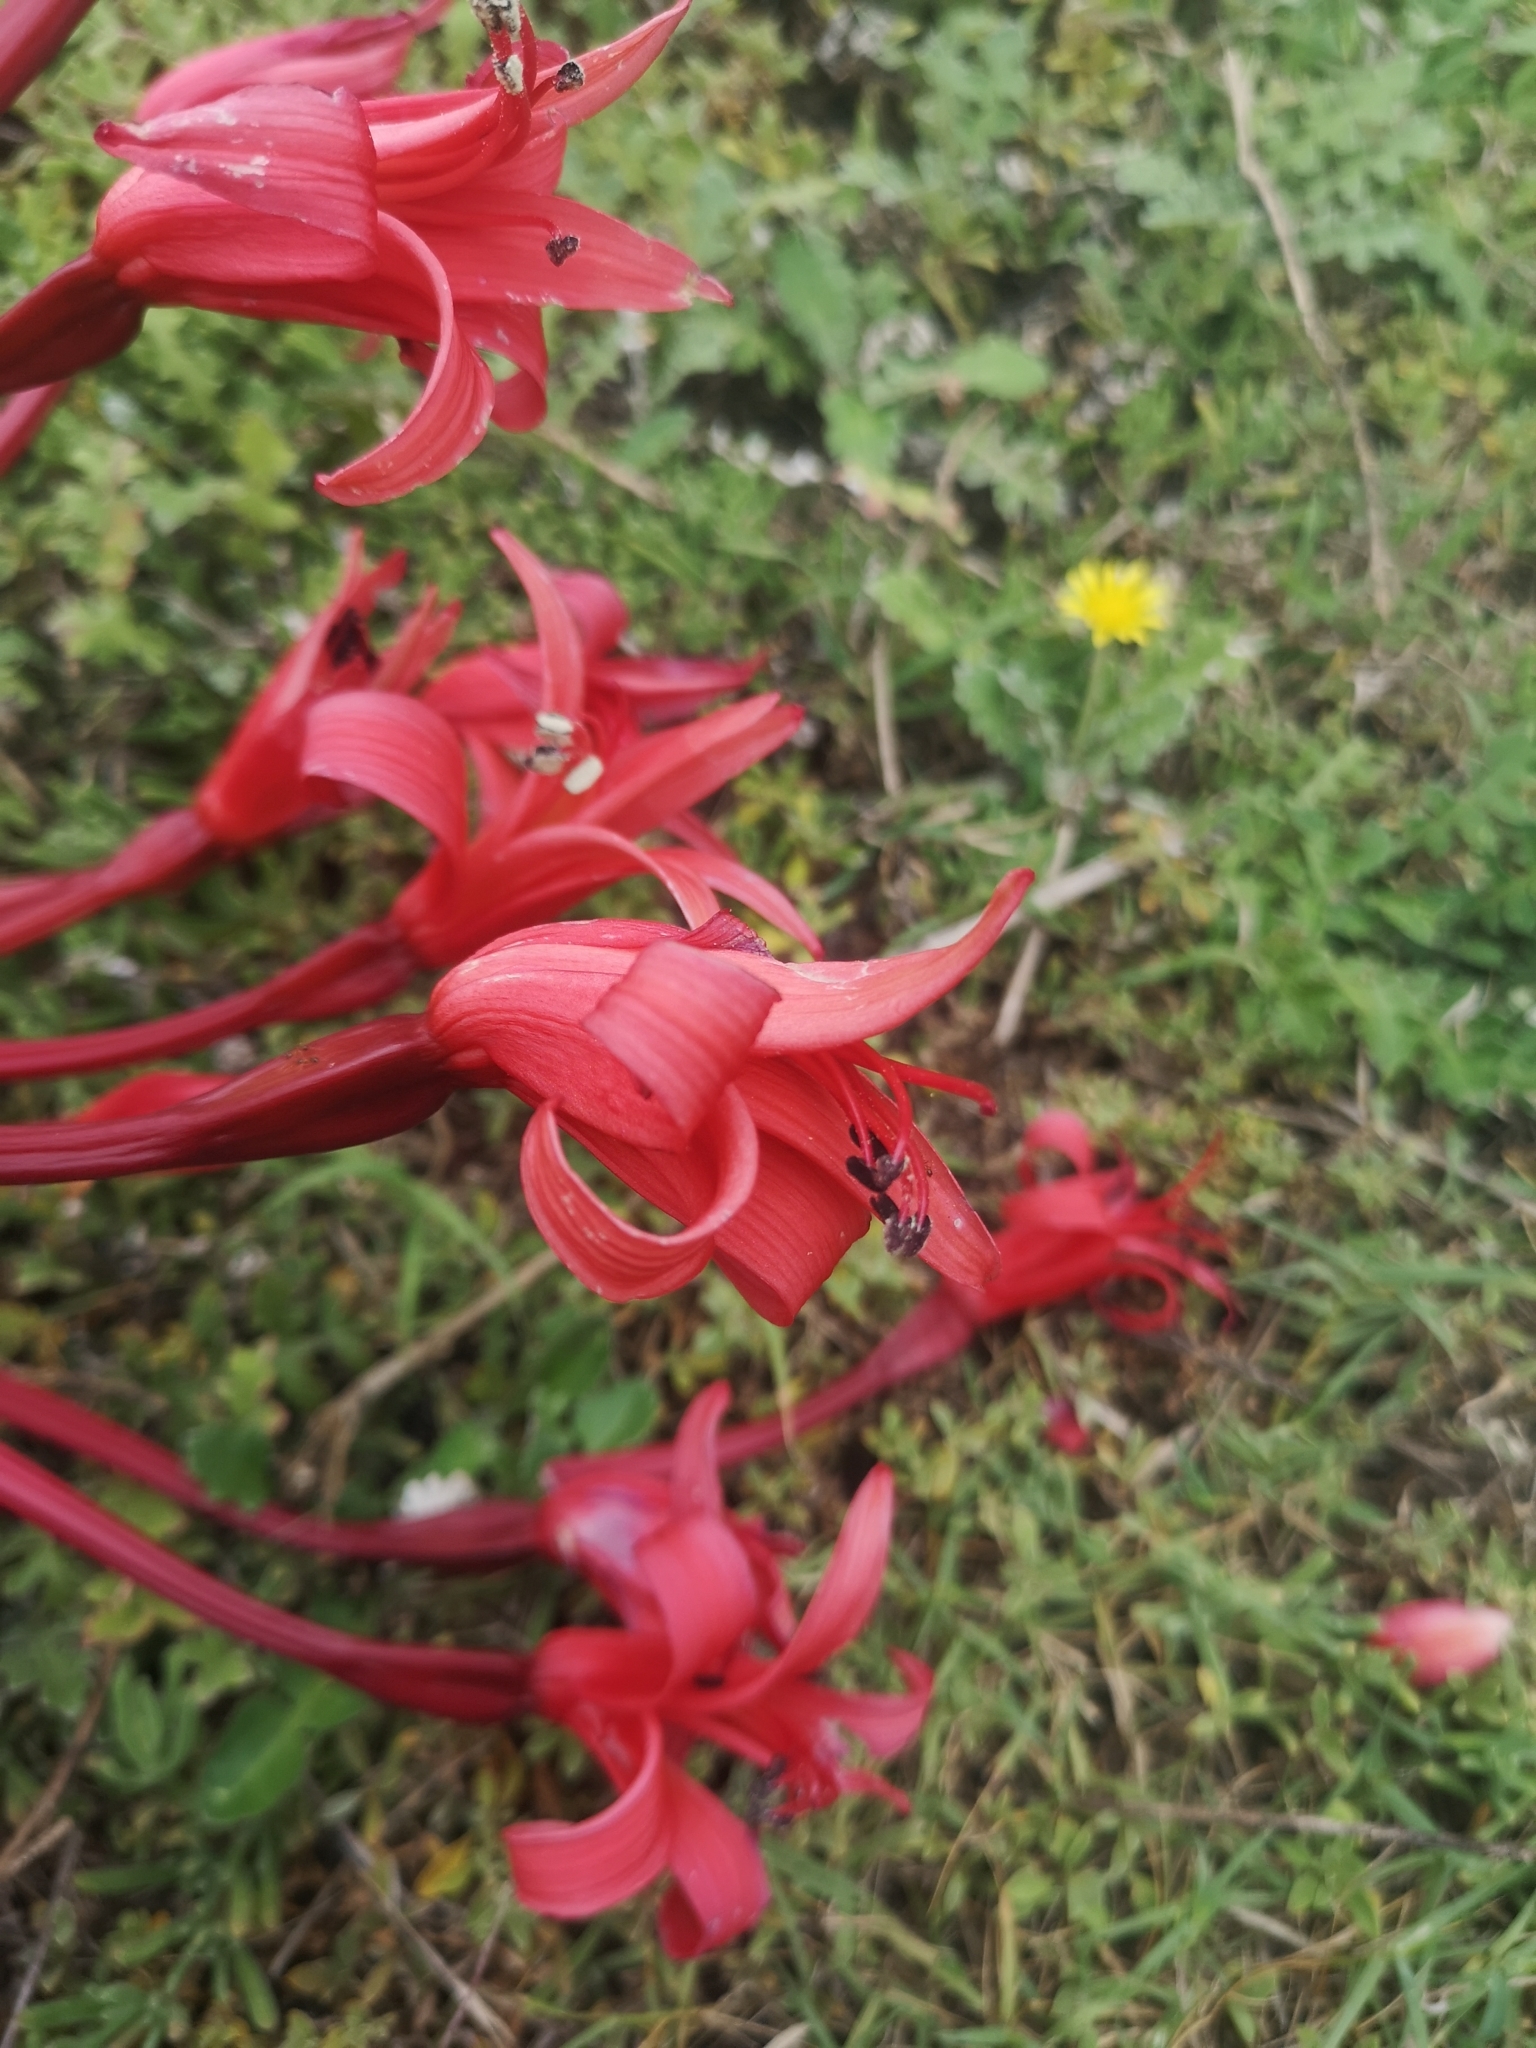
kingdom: Plantae
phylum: Tracheophyta
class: Liliopsida
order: Asparagales
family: Amaryllidaceae
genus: Brunsvigia
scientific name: Brunsvigia orientalis
